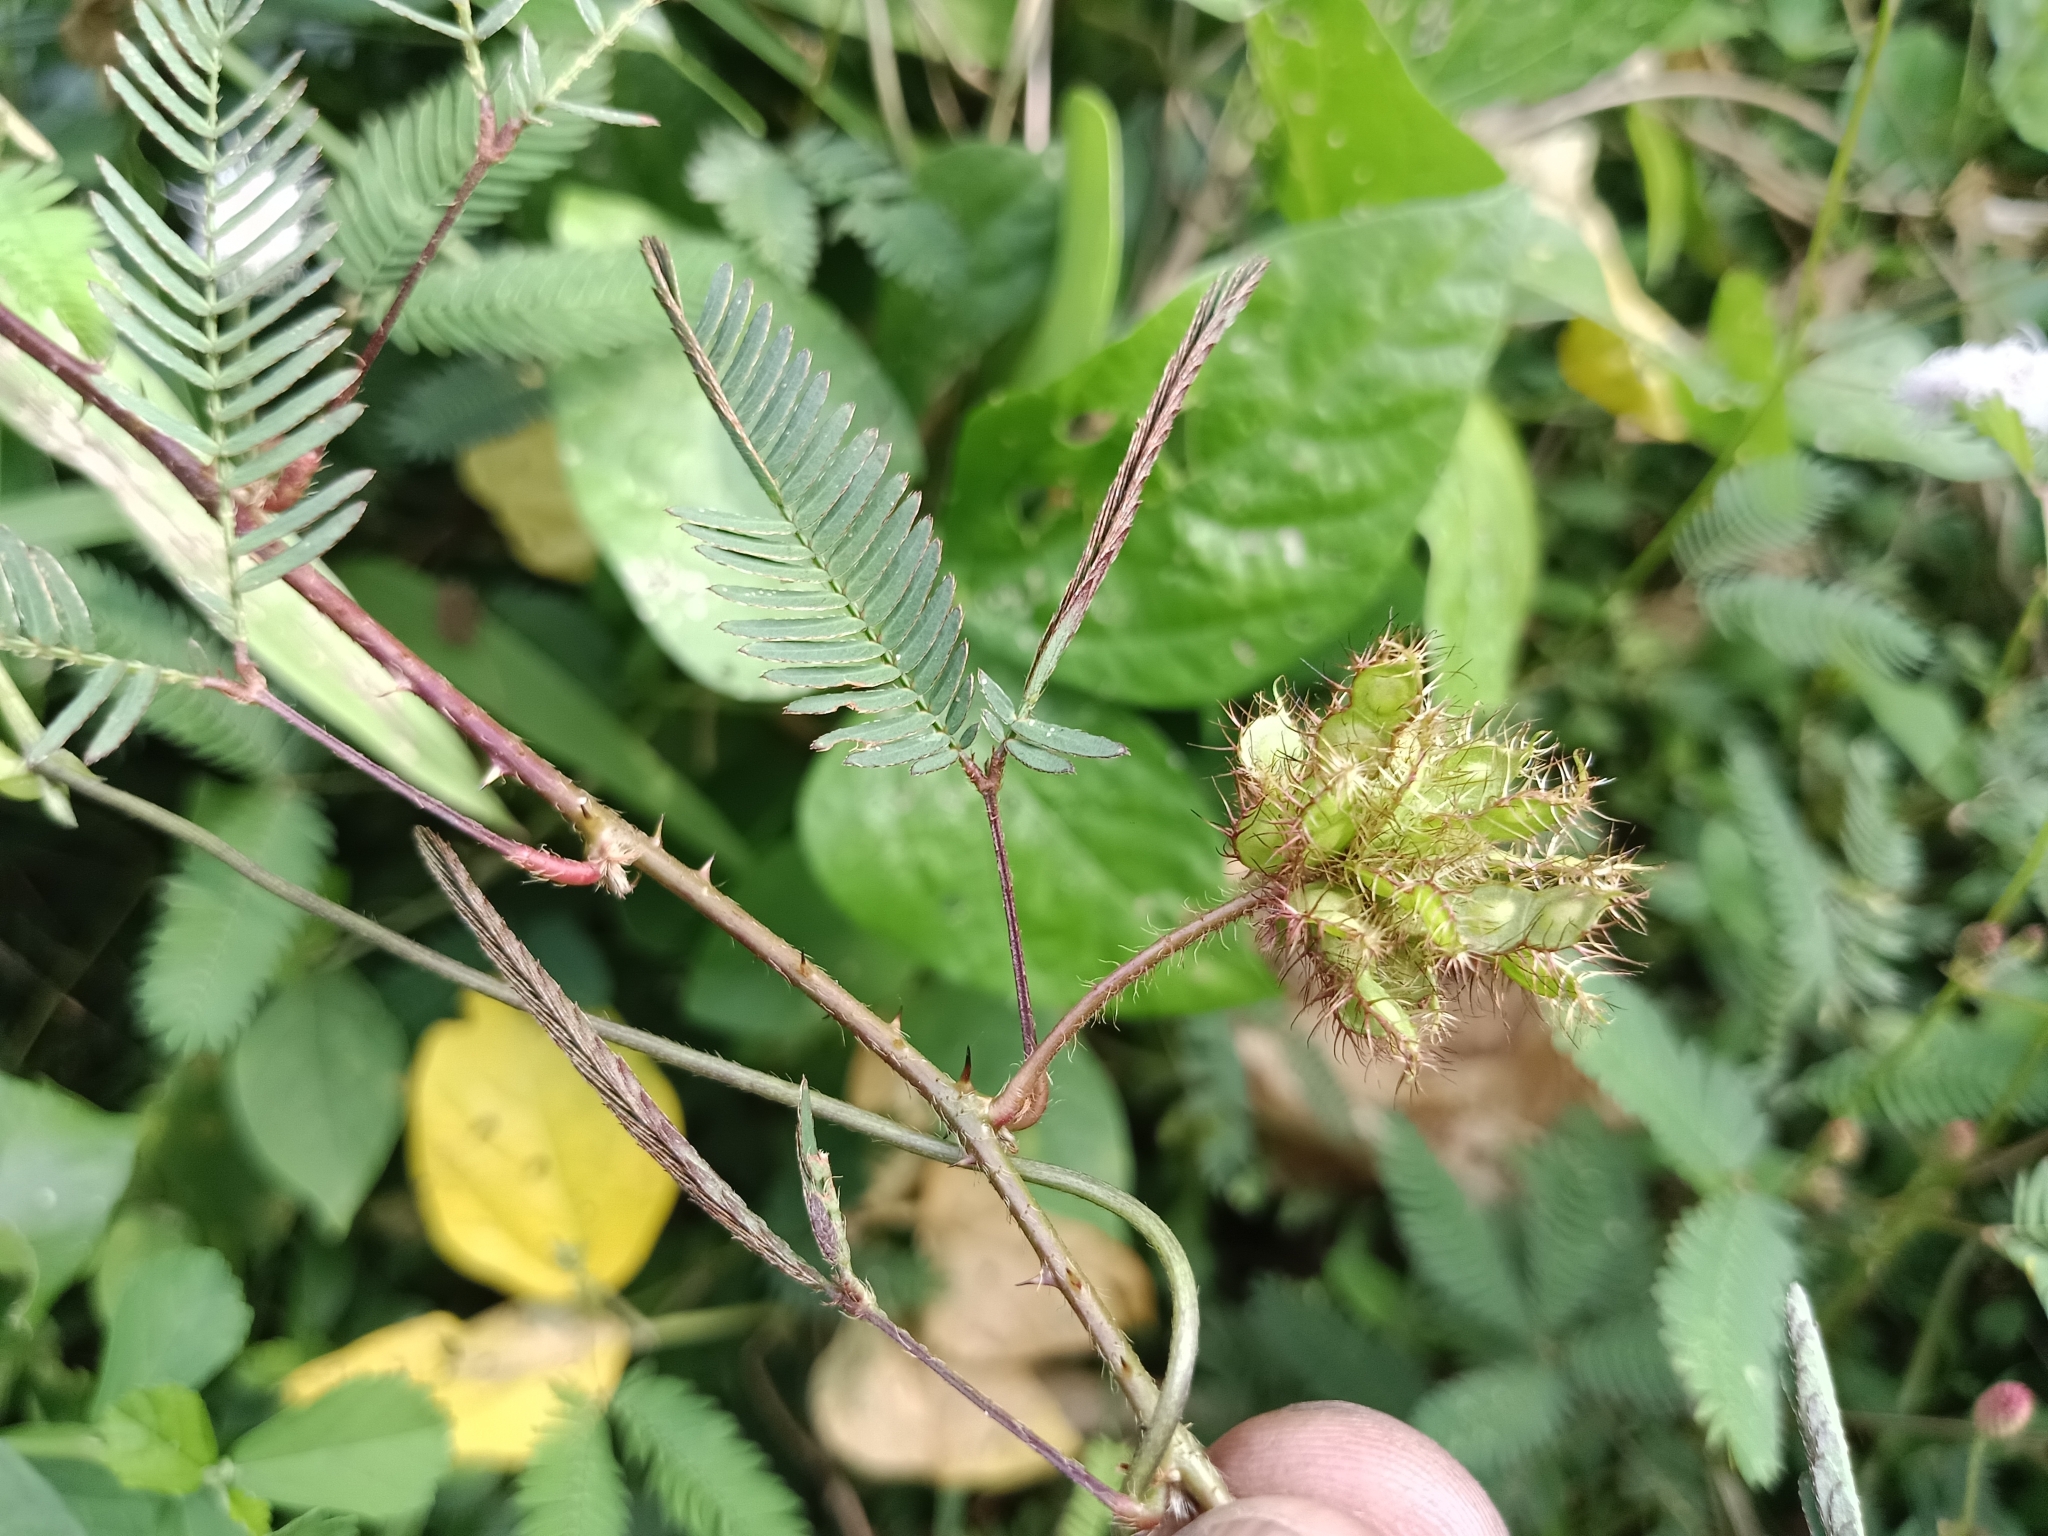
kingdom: Plantae
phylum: Tracheophyta
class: Magnoliopsida
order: Fabales
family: Fabaceae
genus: Mimosa
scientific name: Mimosa pudica
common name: Sensitive plant
